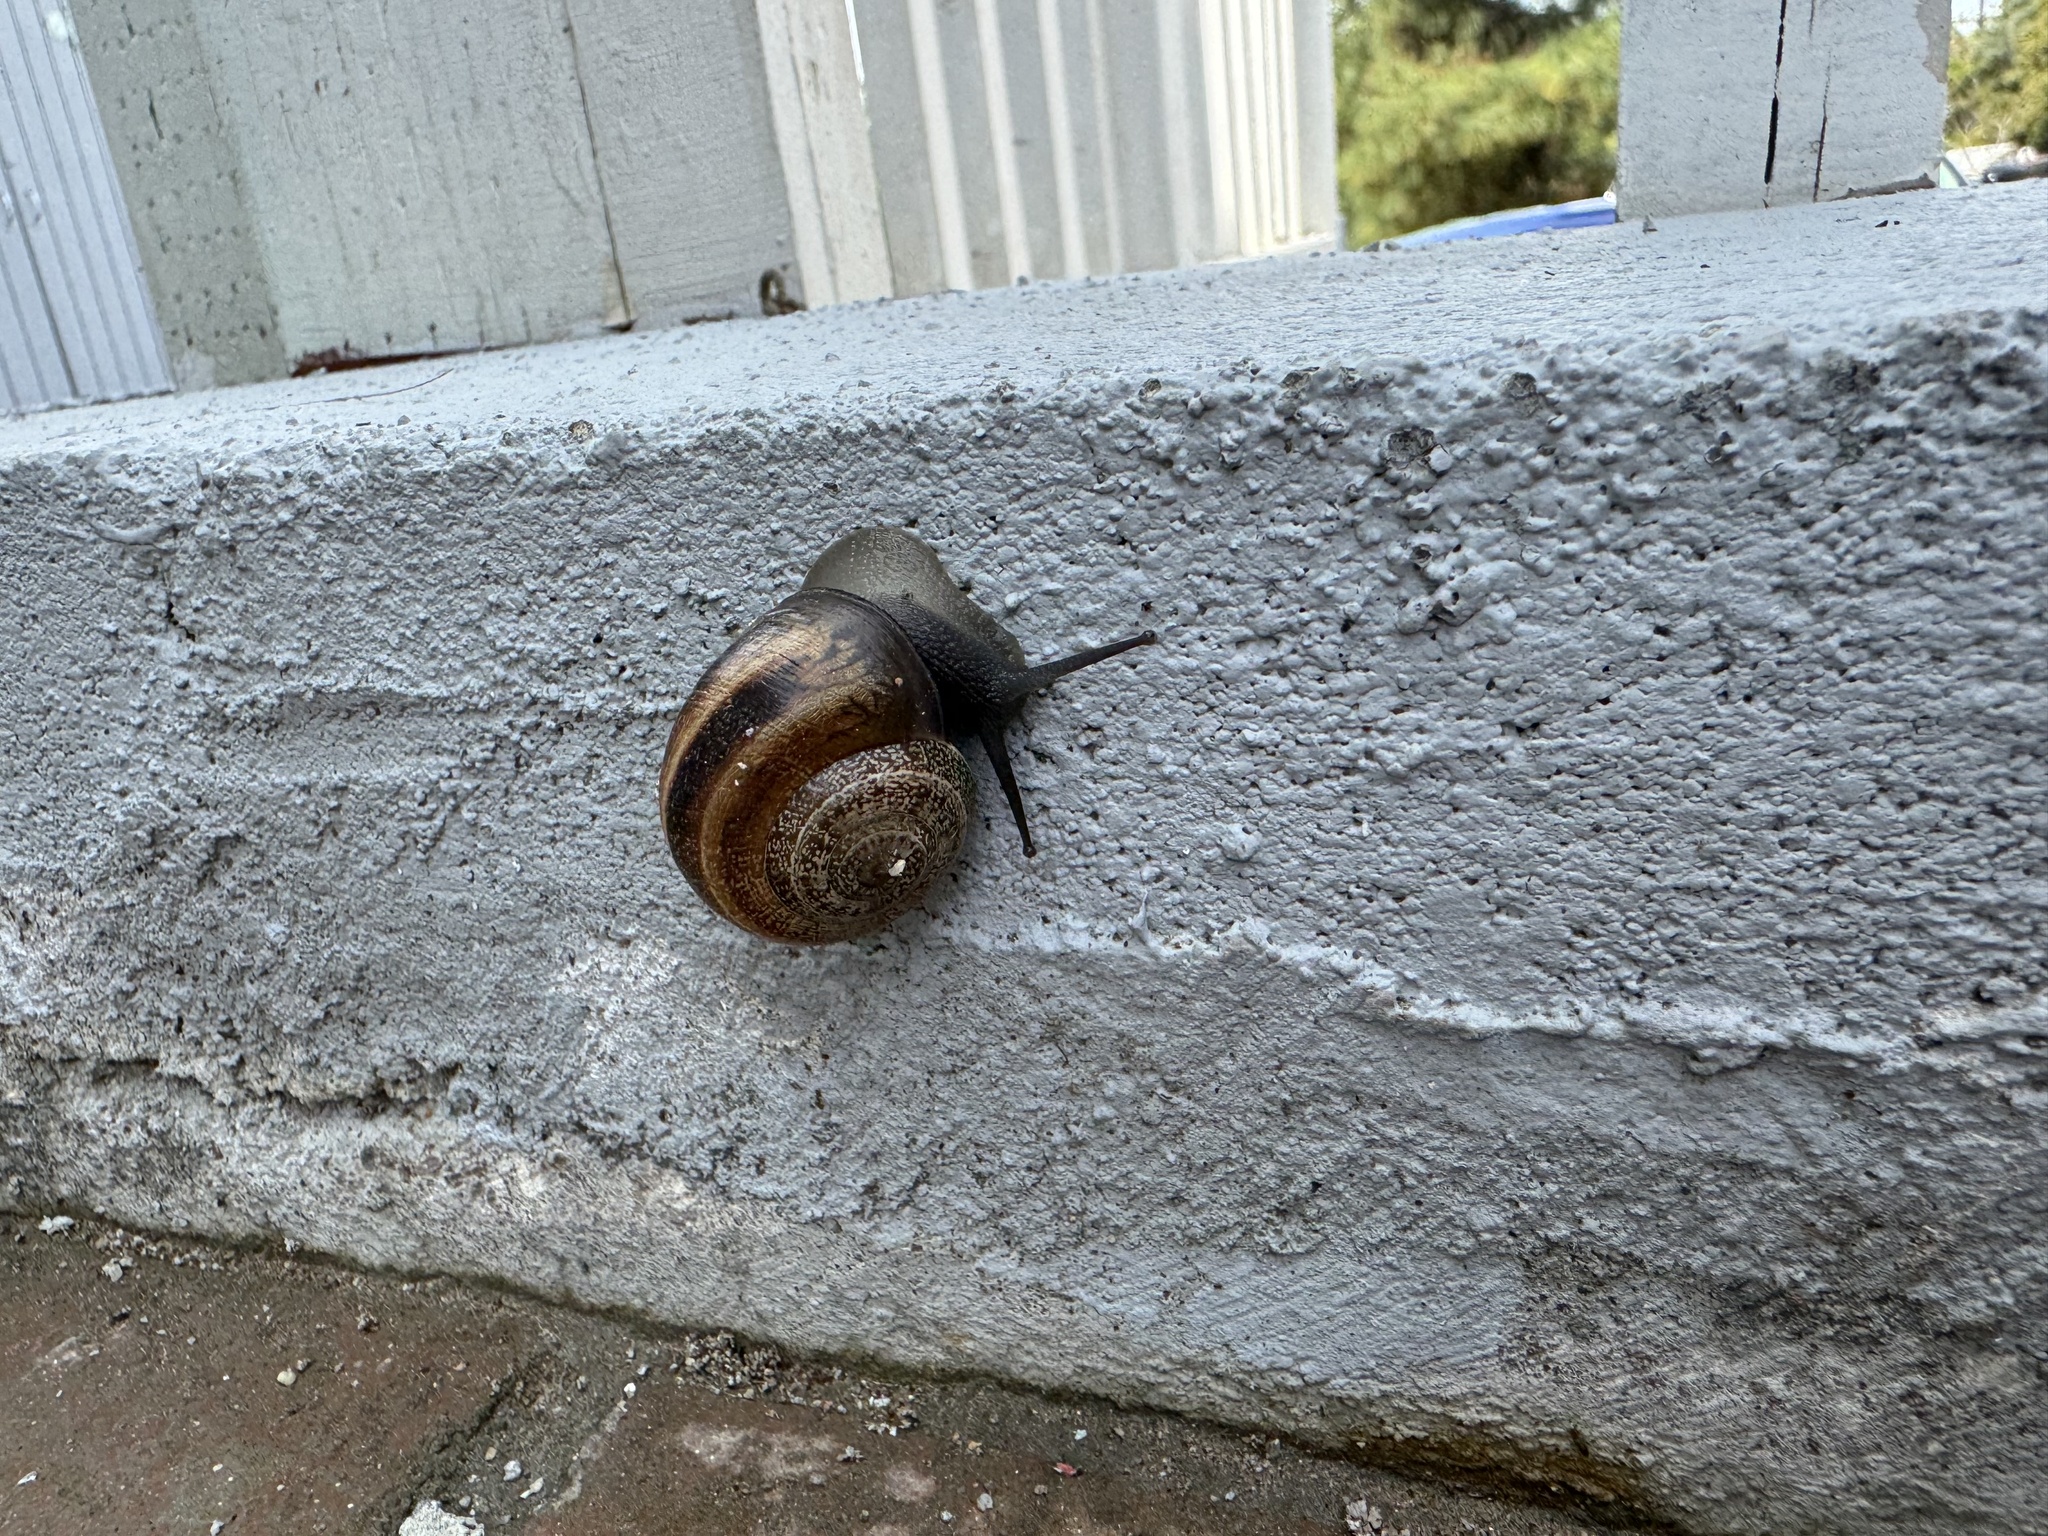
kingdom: Animalia
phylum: Mollusca
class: Gastropoda
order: Stylommatophora
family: Helicidae
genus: Otala
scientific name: Otala lactea
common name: Milk snail
